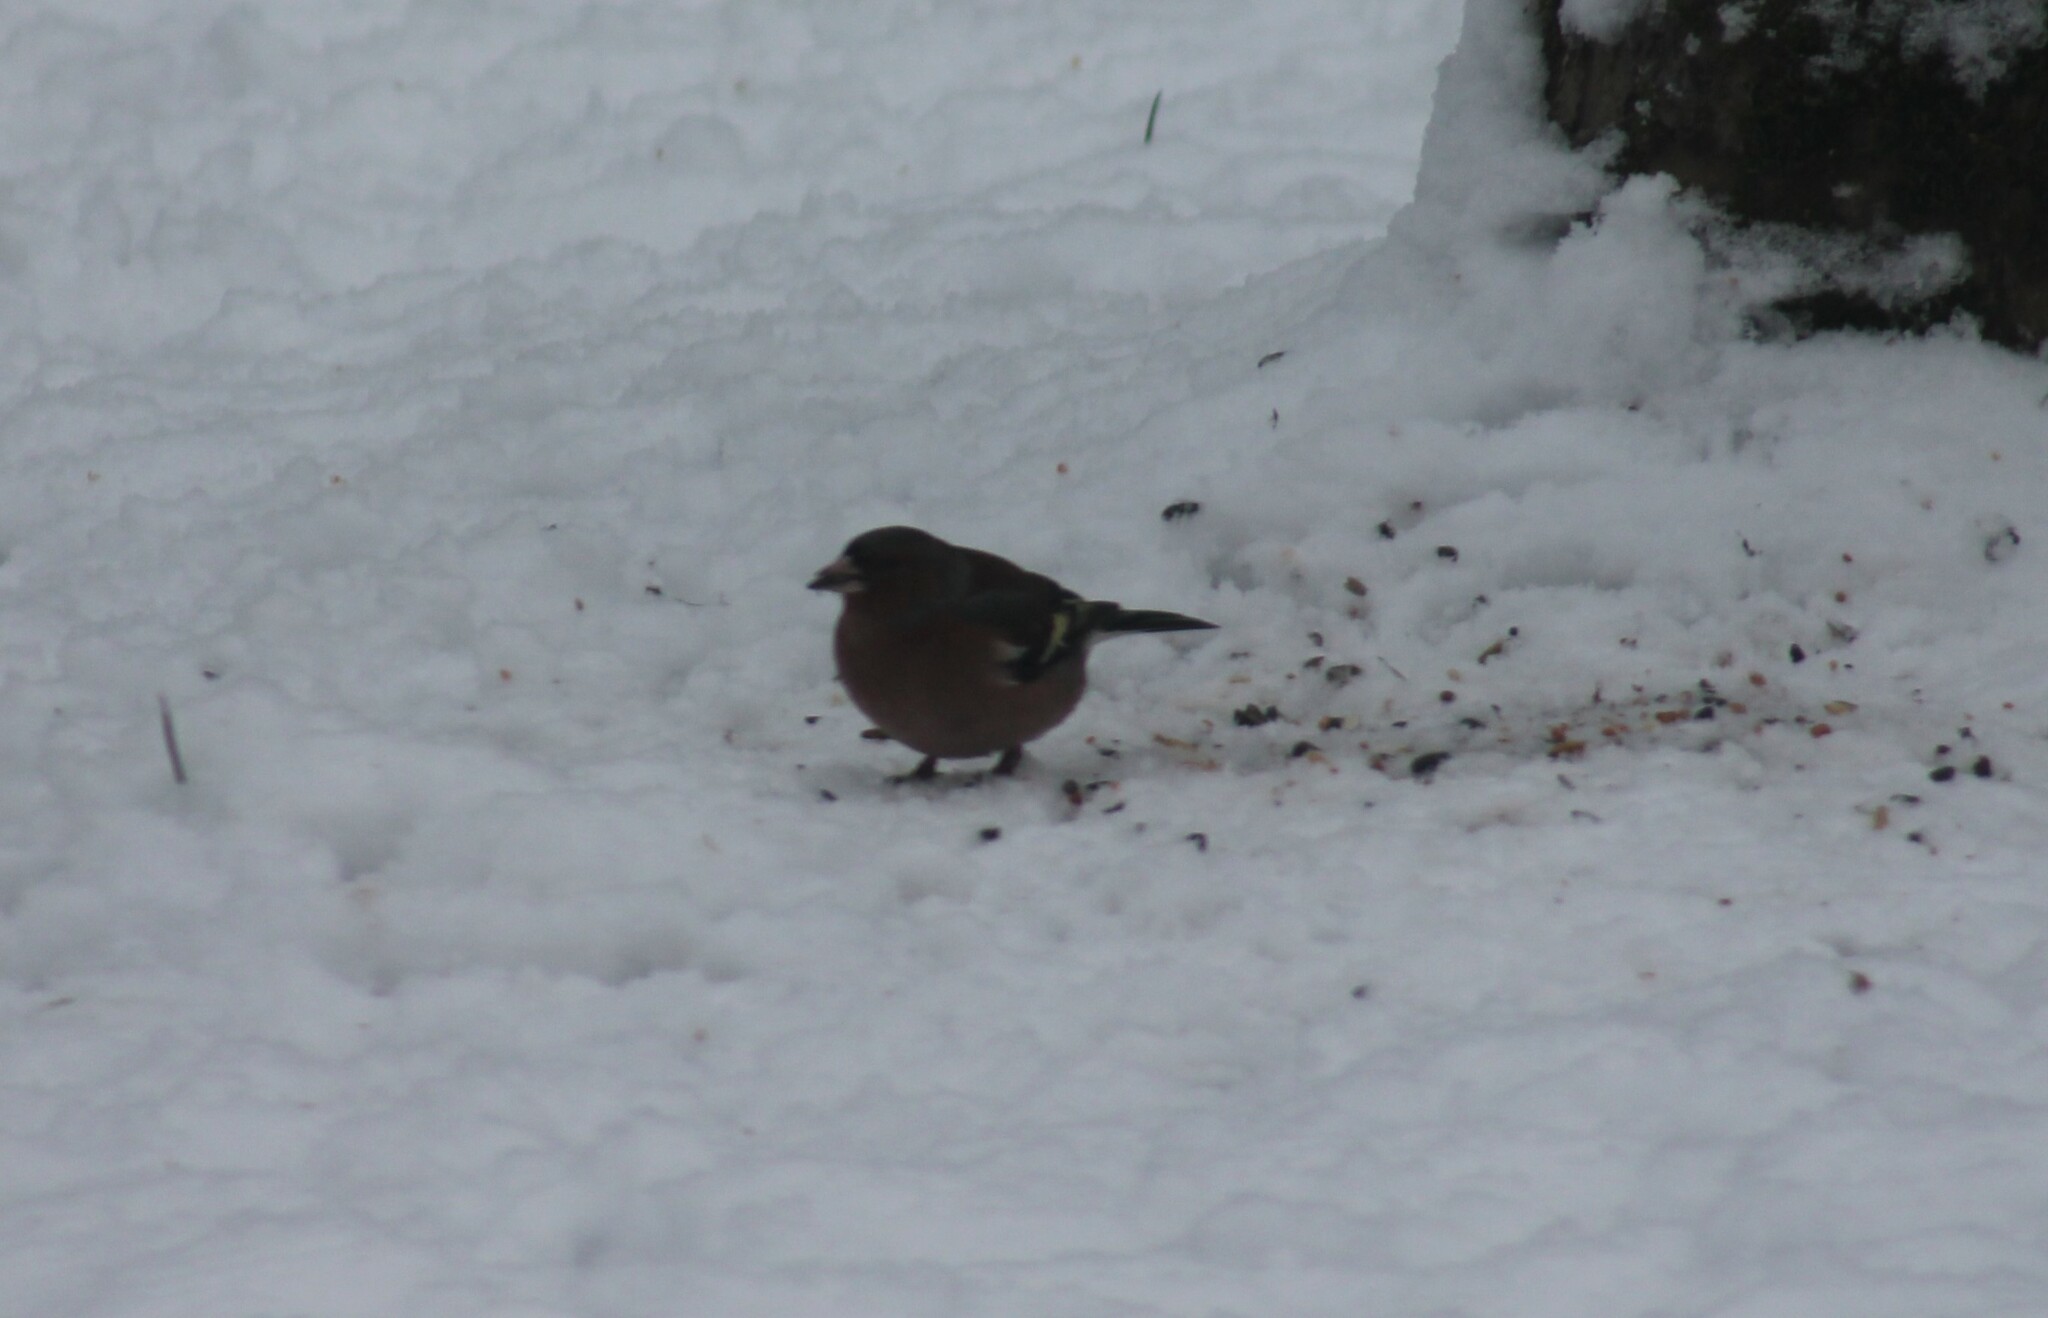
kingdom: Animalia
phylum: Chordata
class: Aves
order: Passeriformes
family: Fringillidae
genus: Fringilla
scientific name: Fringilla coelebs
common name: Common chaffinch
